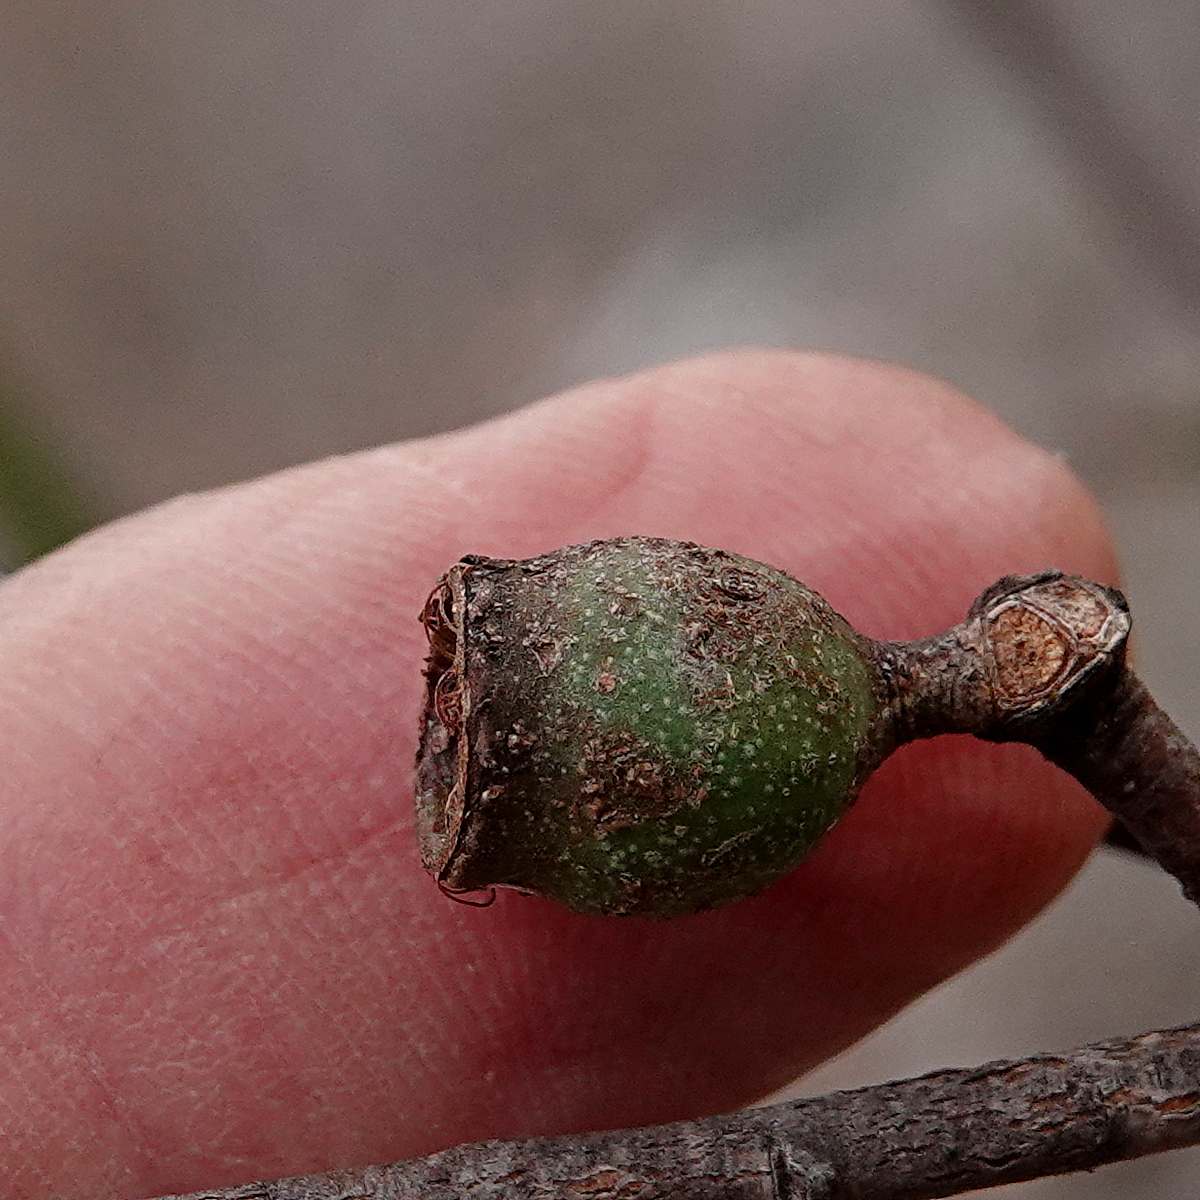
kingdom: Plantae
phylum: Tracheophyta
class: Magnoliopsida
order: Myrtales
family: Myrtaceae
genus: Eucalyptus
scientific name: Eucalyptus spectatrix
